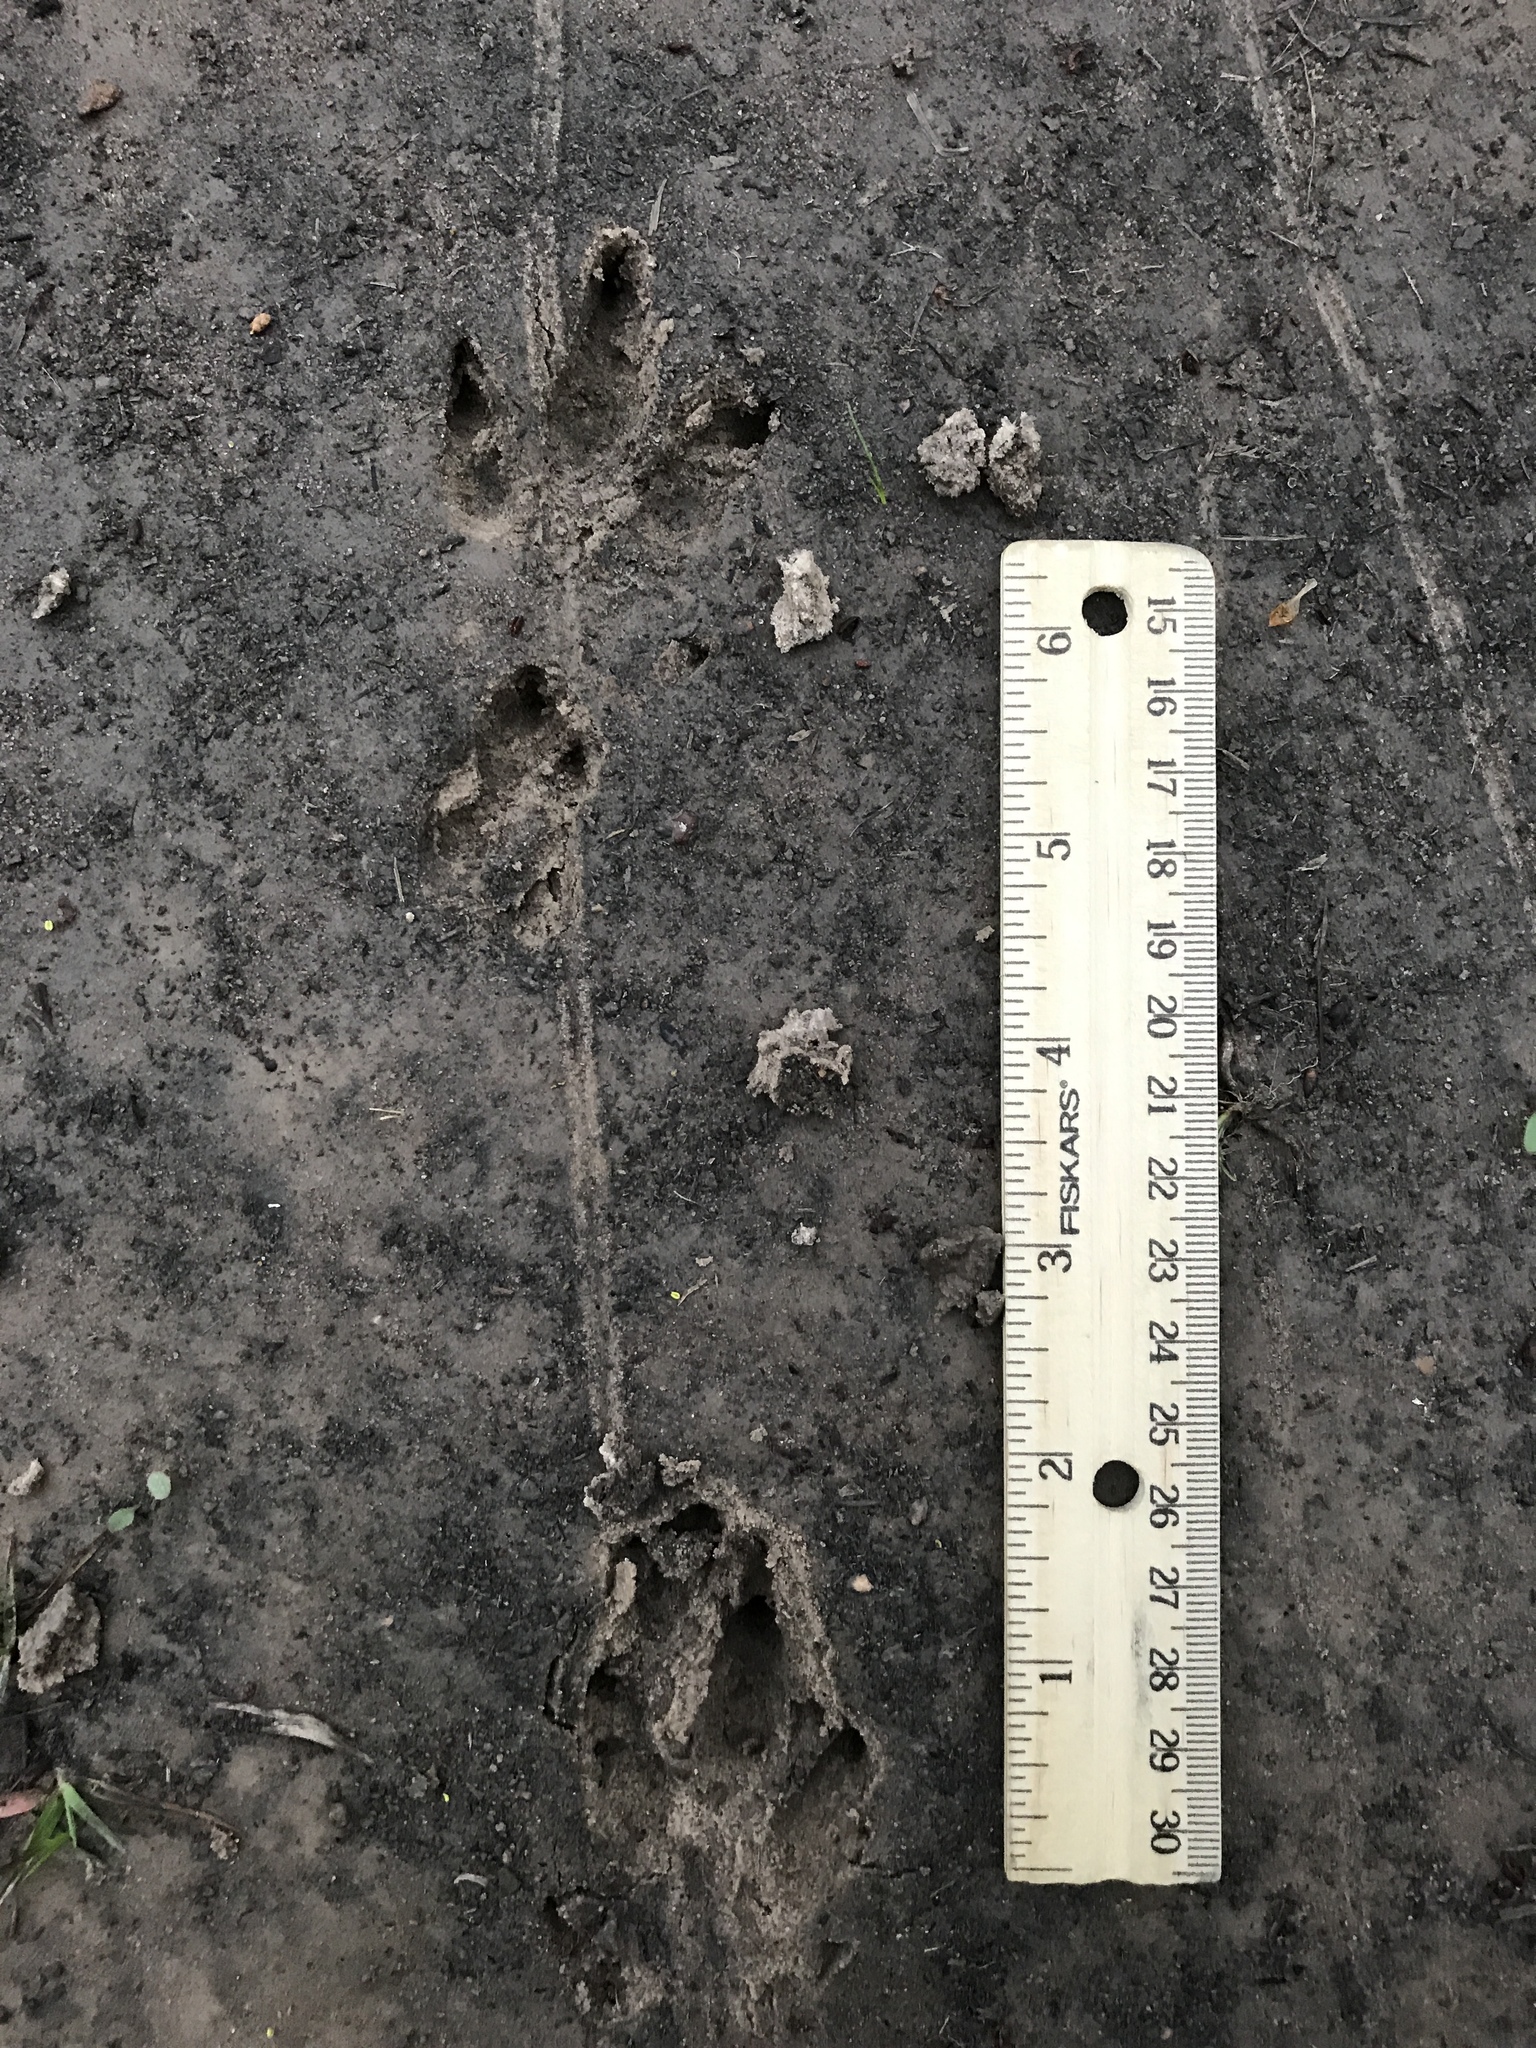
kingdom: Animalia
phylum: Chordata
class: Mammalia
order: Cingulata
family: Dasypodidae
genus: Dasypus
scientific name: Dasypus novemcinctus
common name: Nine-banded armadillo
